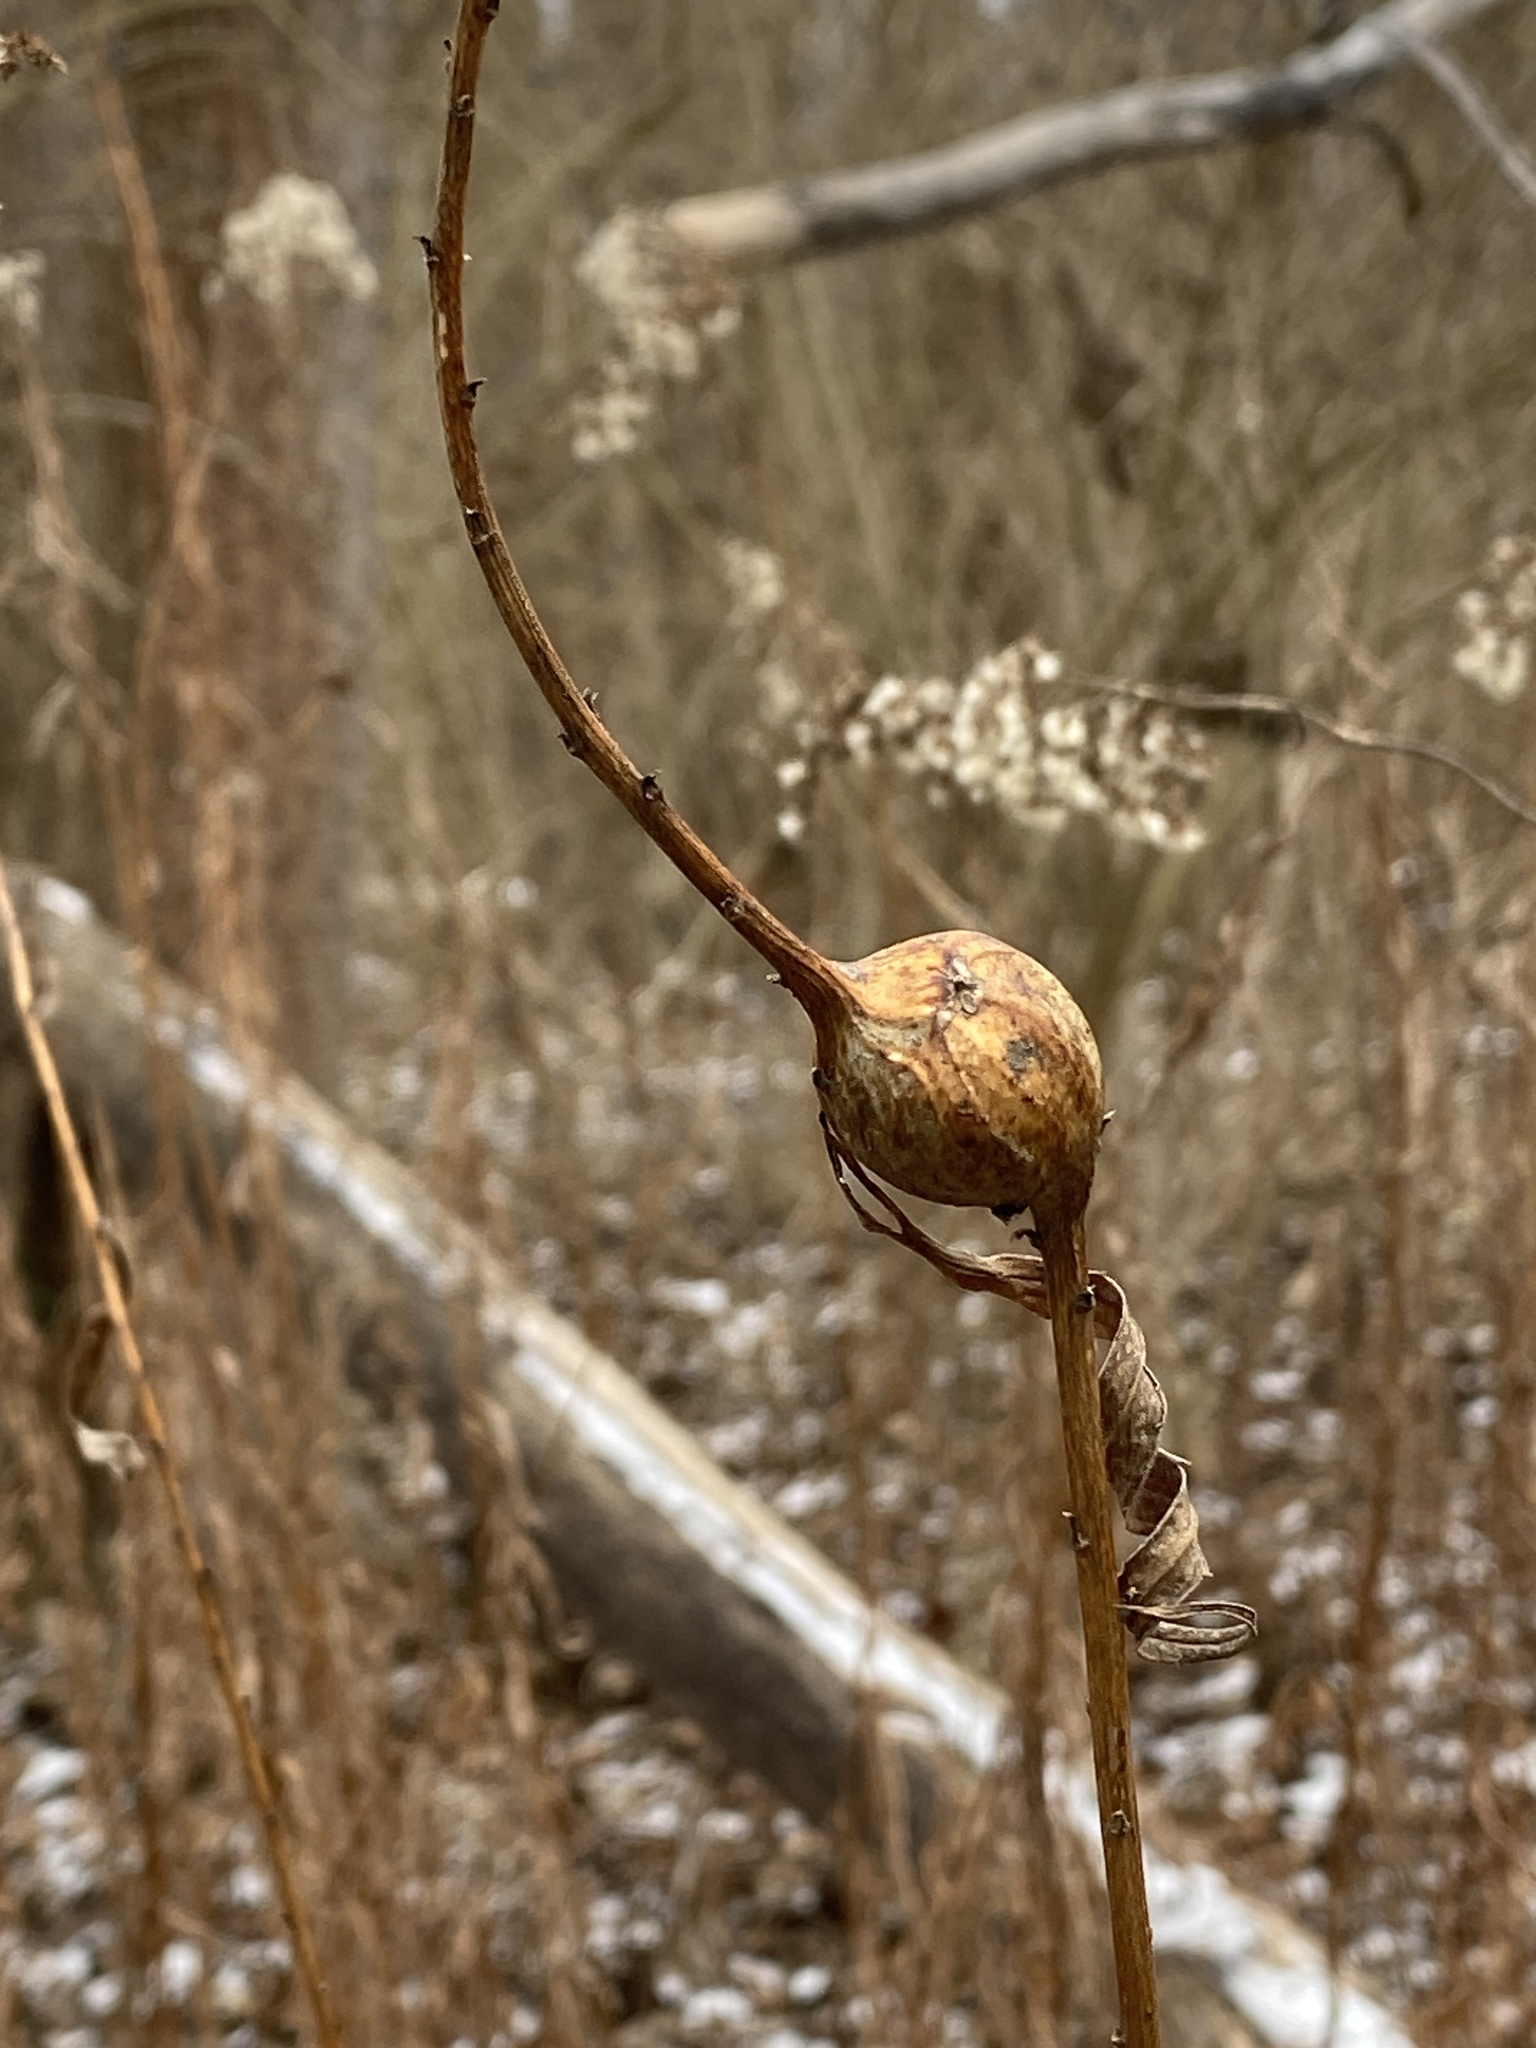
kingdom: Animalia
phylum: Arthropoda
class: Insecta
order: Diptera
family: Tephritidae
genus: Eurosta
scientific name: Eurosta solidaginis
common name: Goldenrod gall fly
